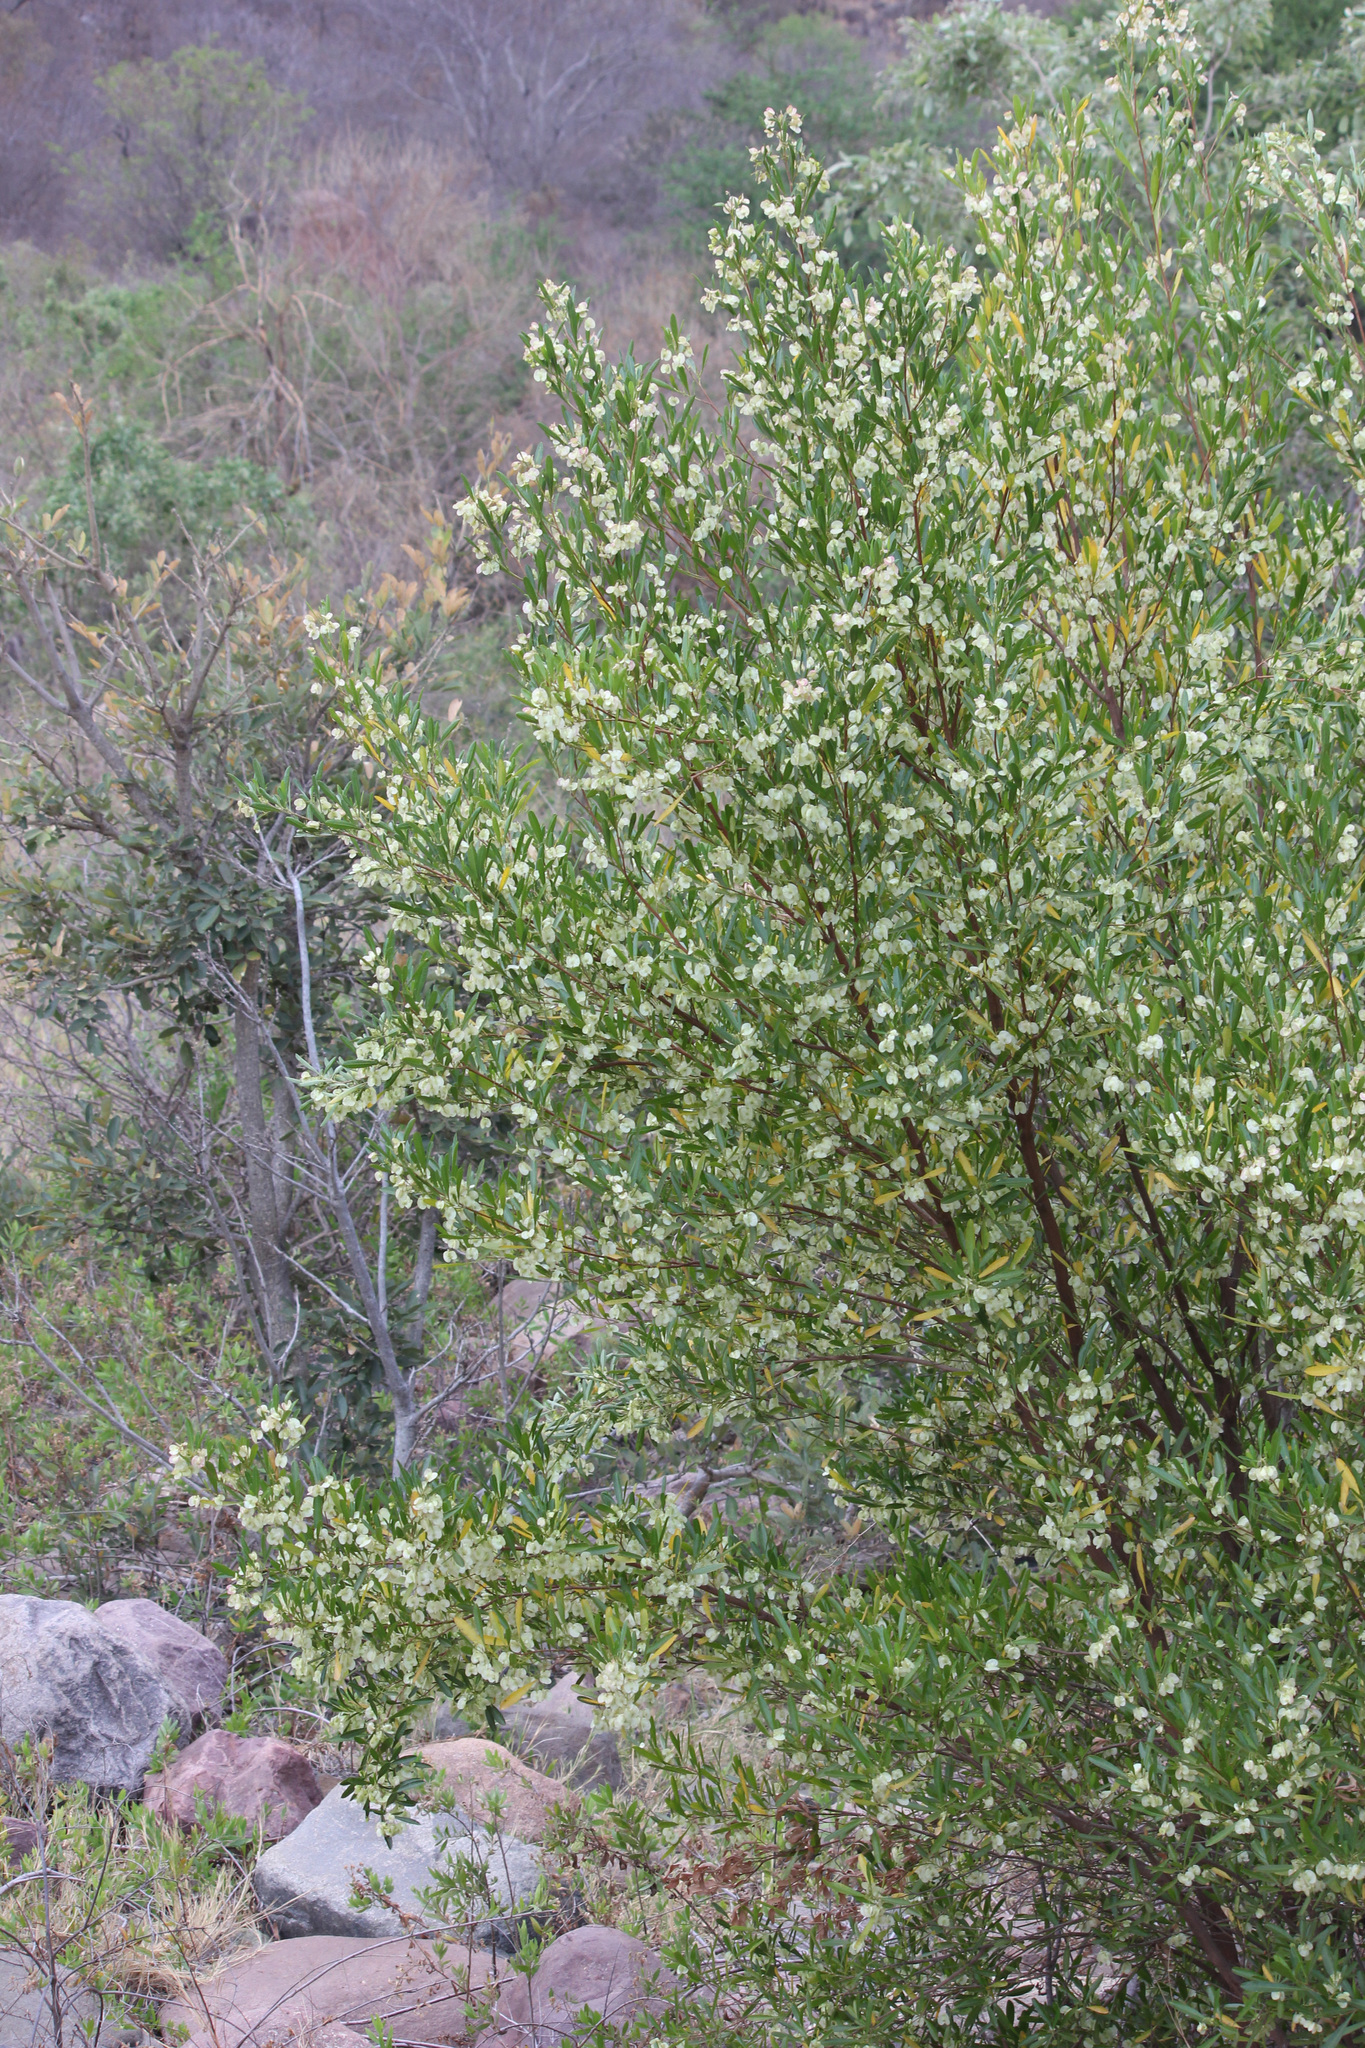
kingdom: Plantae
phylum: Tracheophyta
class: Magnoliopsida
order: Sapindales
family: Sapindaceae
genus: Dodonaea
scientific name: Dodonaea viscosa
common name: Hopbush
